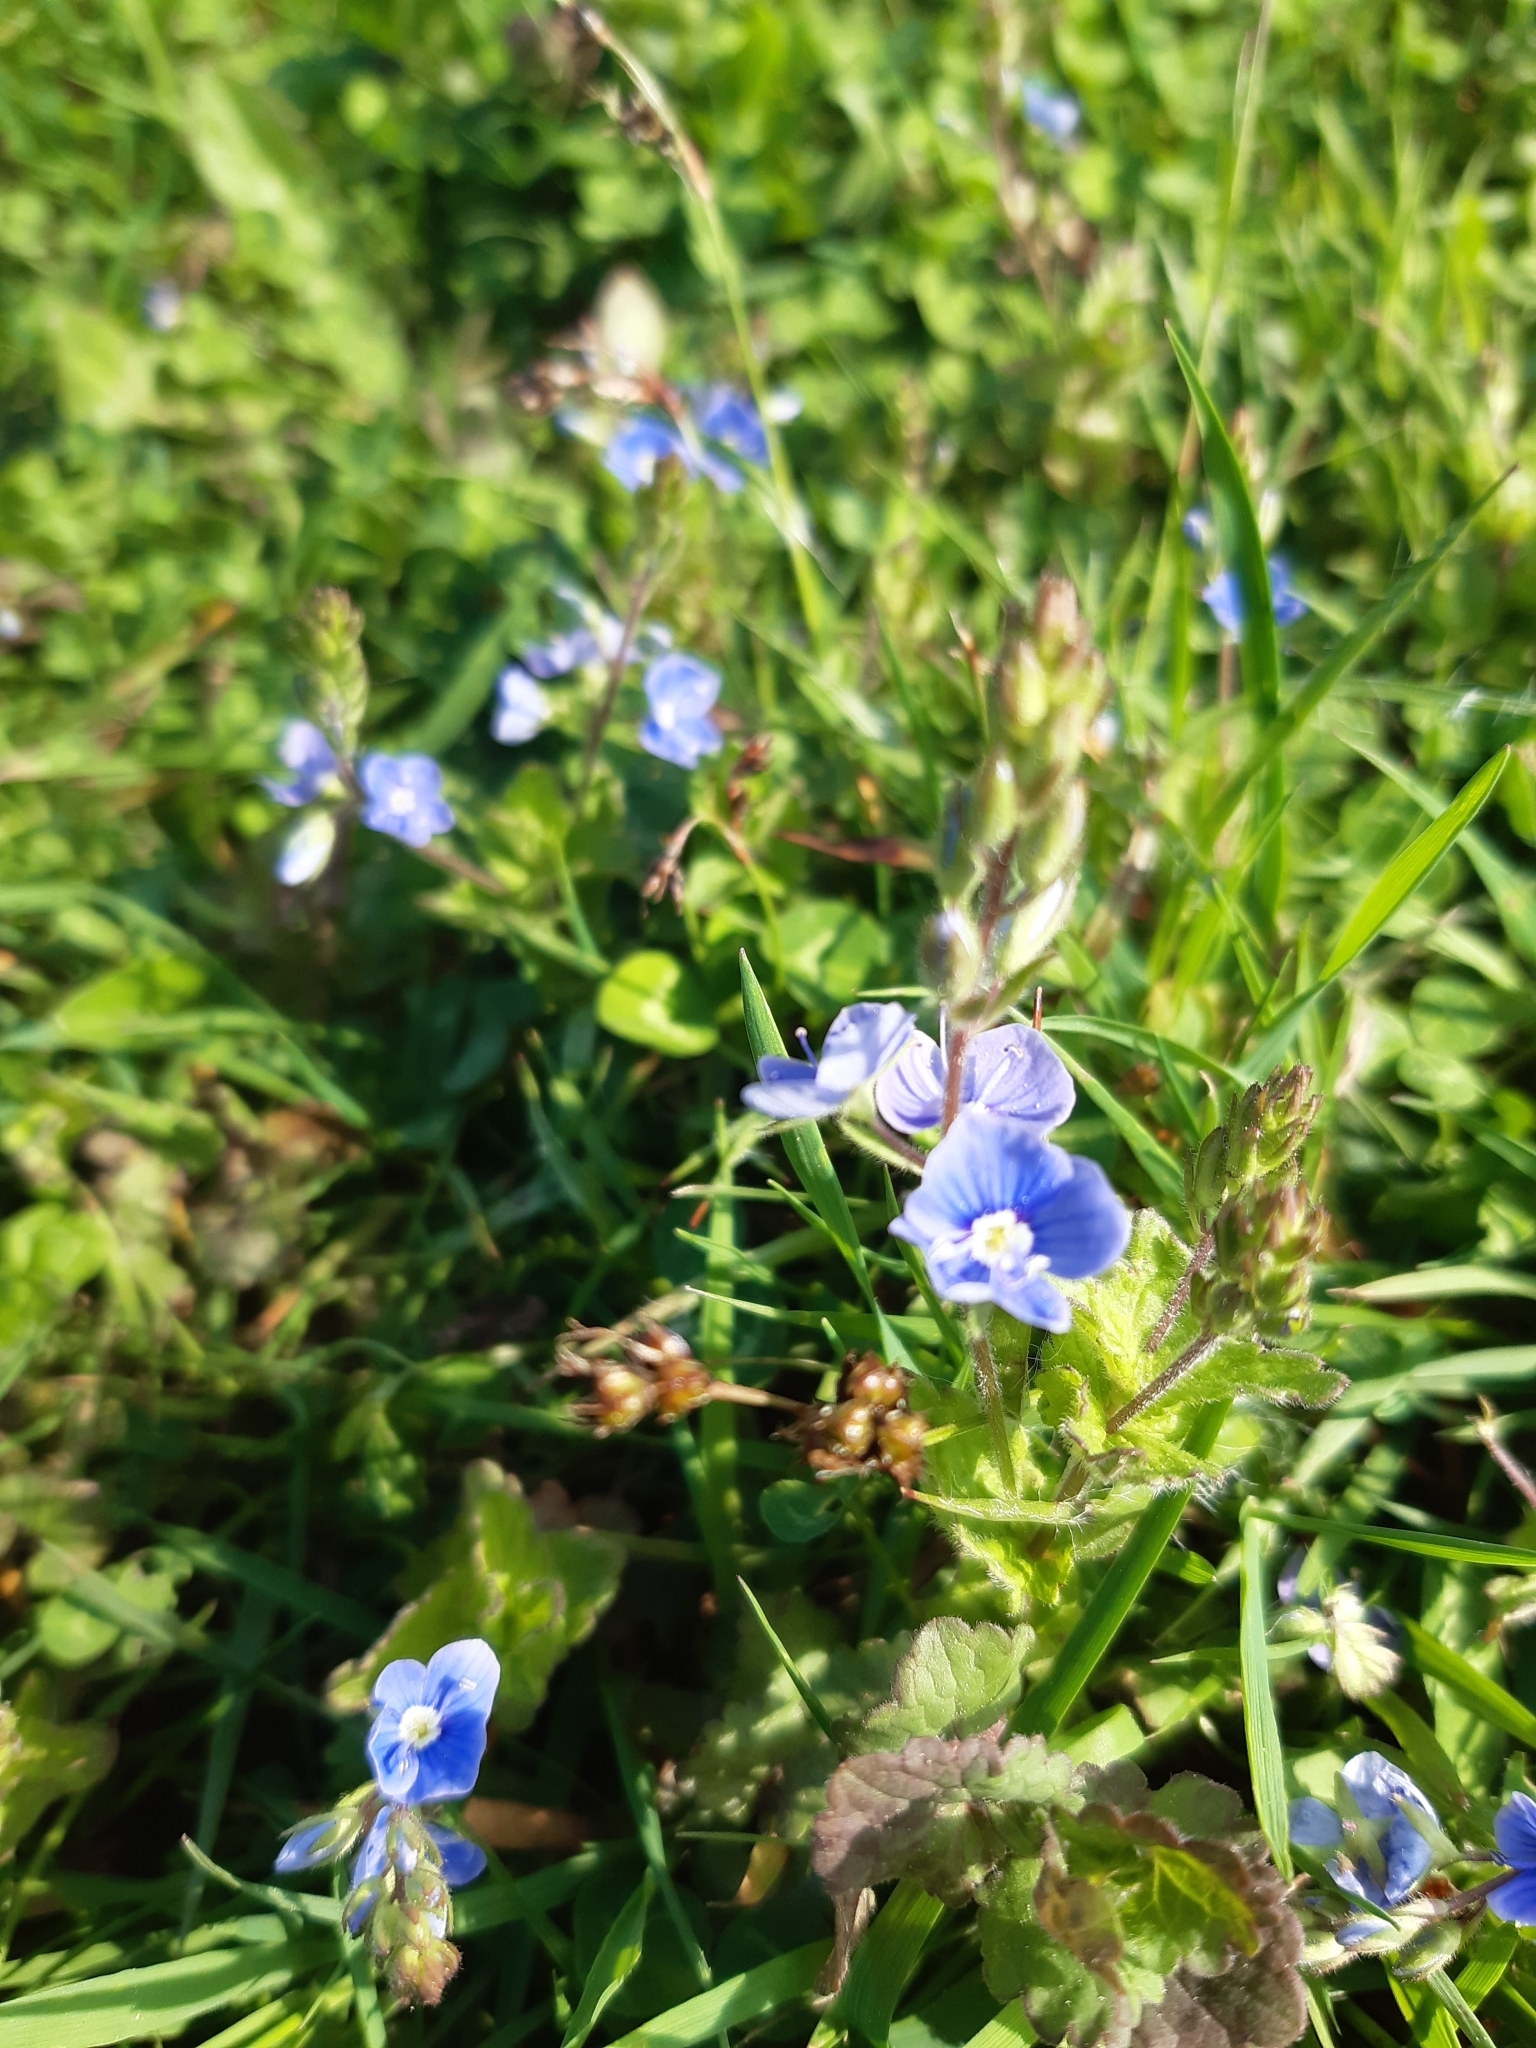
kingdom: Plantae
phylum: Tracheophyta
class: Magnoliopsida
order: Lamiales
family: Plantaginaceae
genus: Veronica
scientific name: Veronica chamaedrys
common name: Germander speedwell
